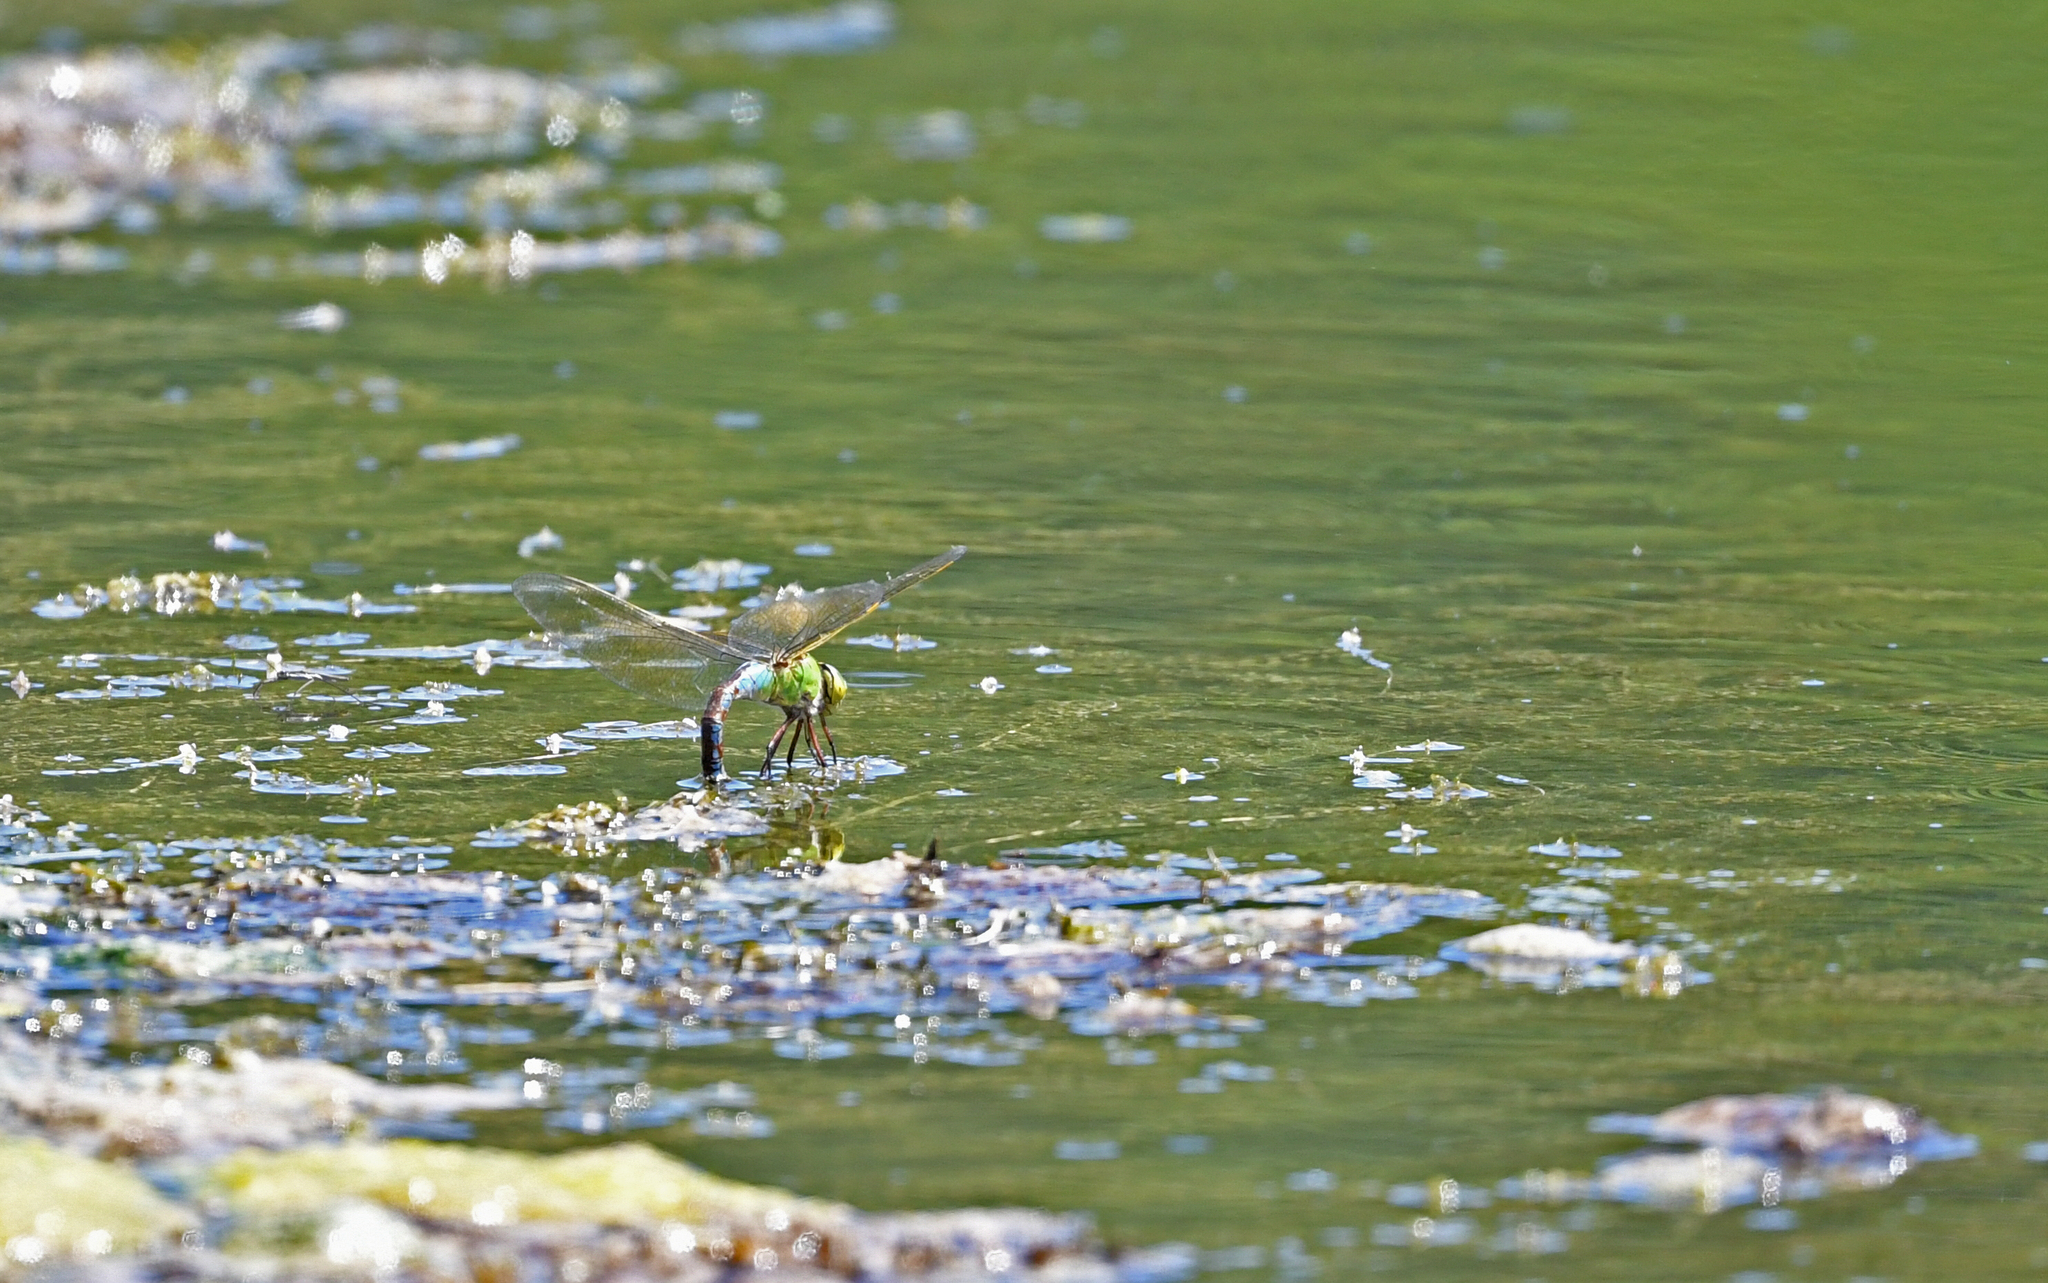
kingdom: Animalia
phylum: Arthropoda
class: Insecta
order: Odonata
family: Aeshnidae
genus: Anax
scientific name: Anax imperator
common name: Emperor dragonfly
